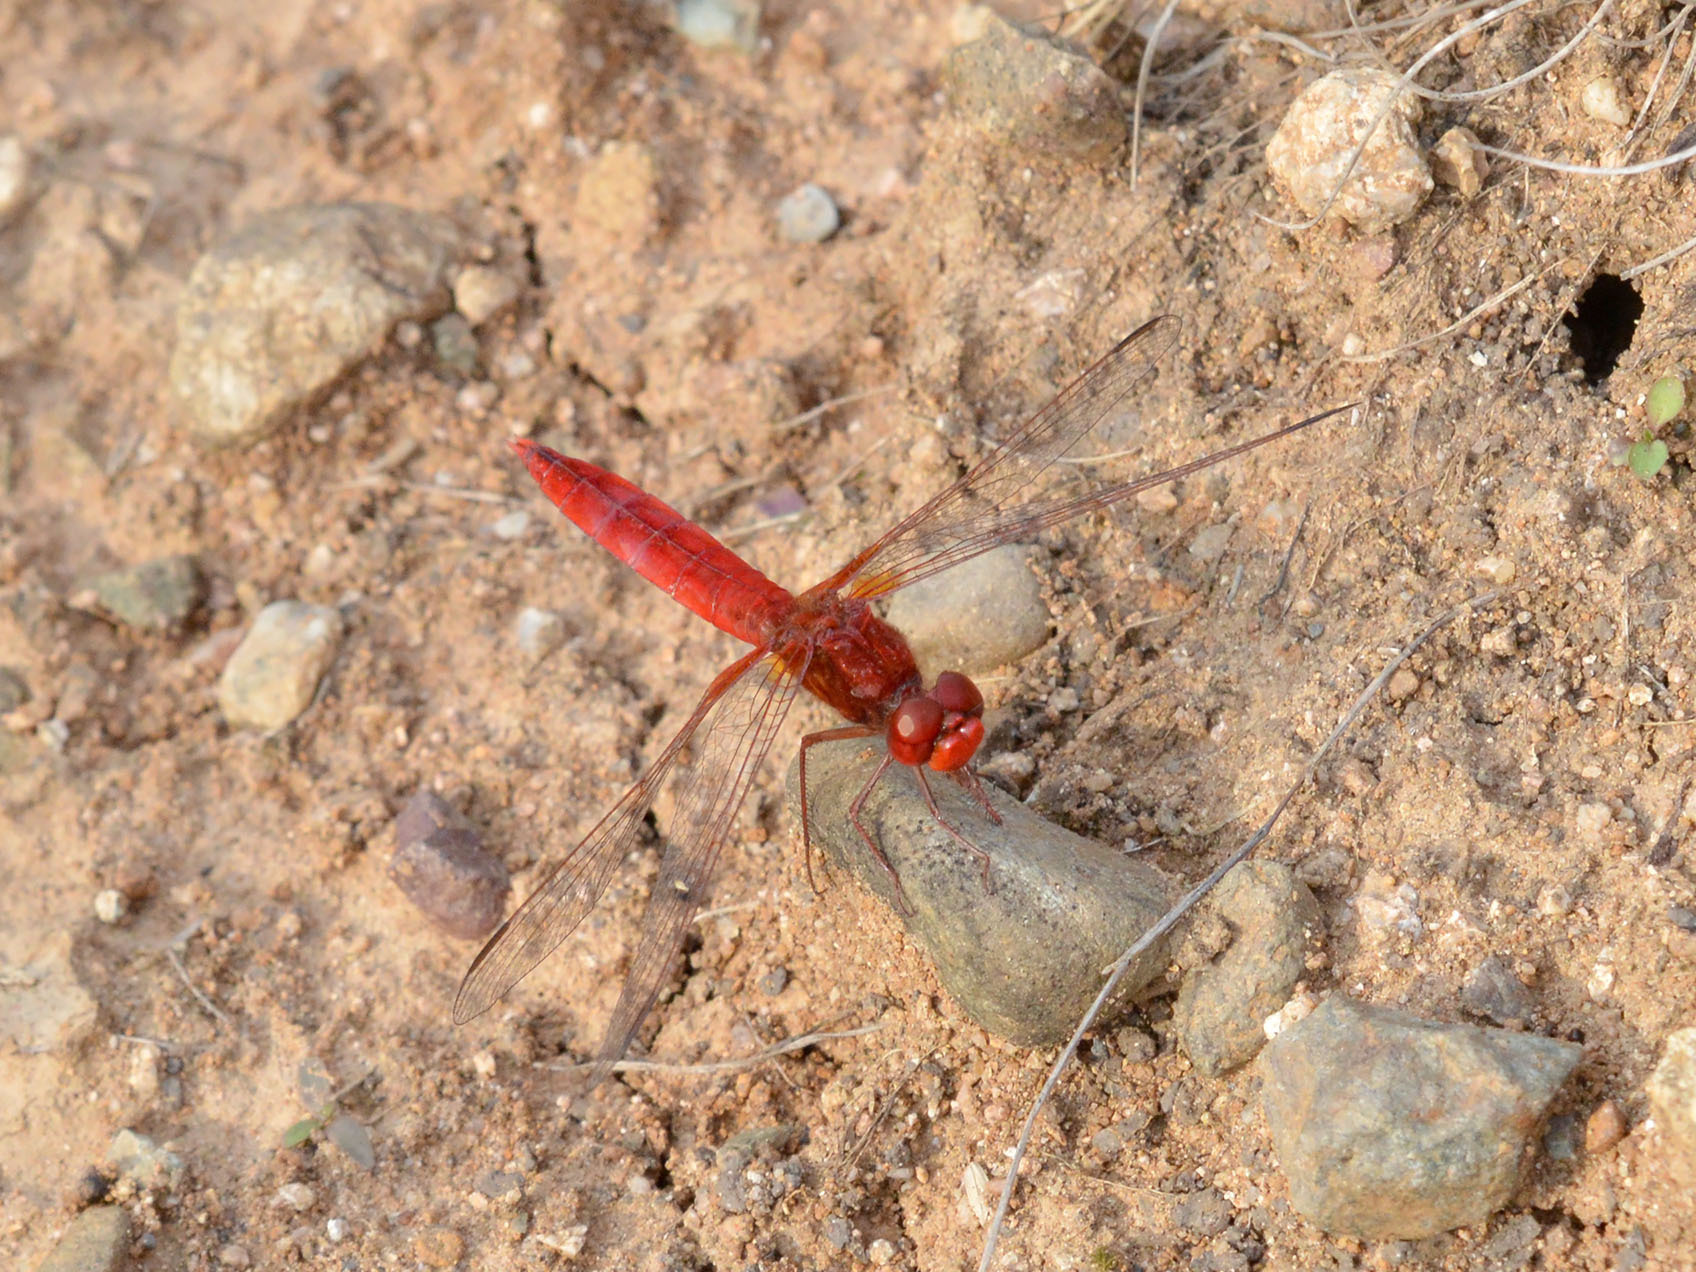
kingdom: Animalia
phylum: Arthropoda
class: Insecta
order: Odonata
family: Libellulidae
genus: Crocothemis
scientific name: Crocothemis erythraea
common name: Scarlet dragonfly
